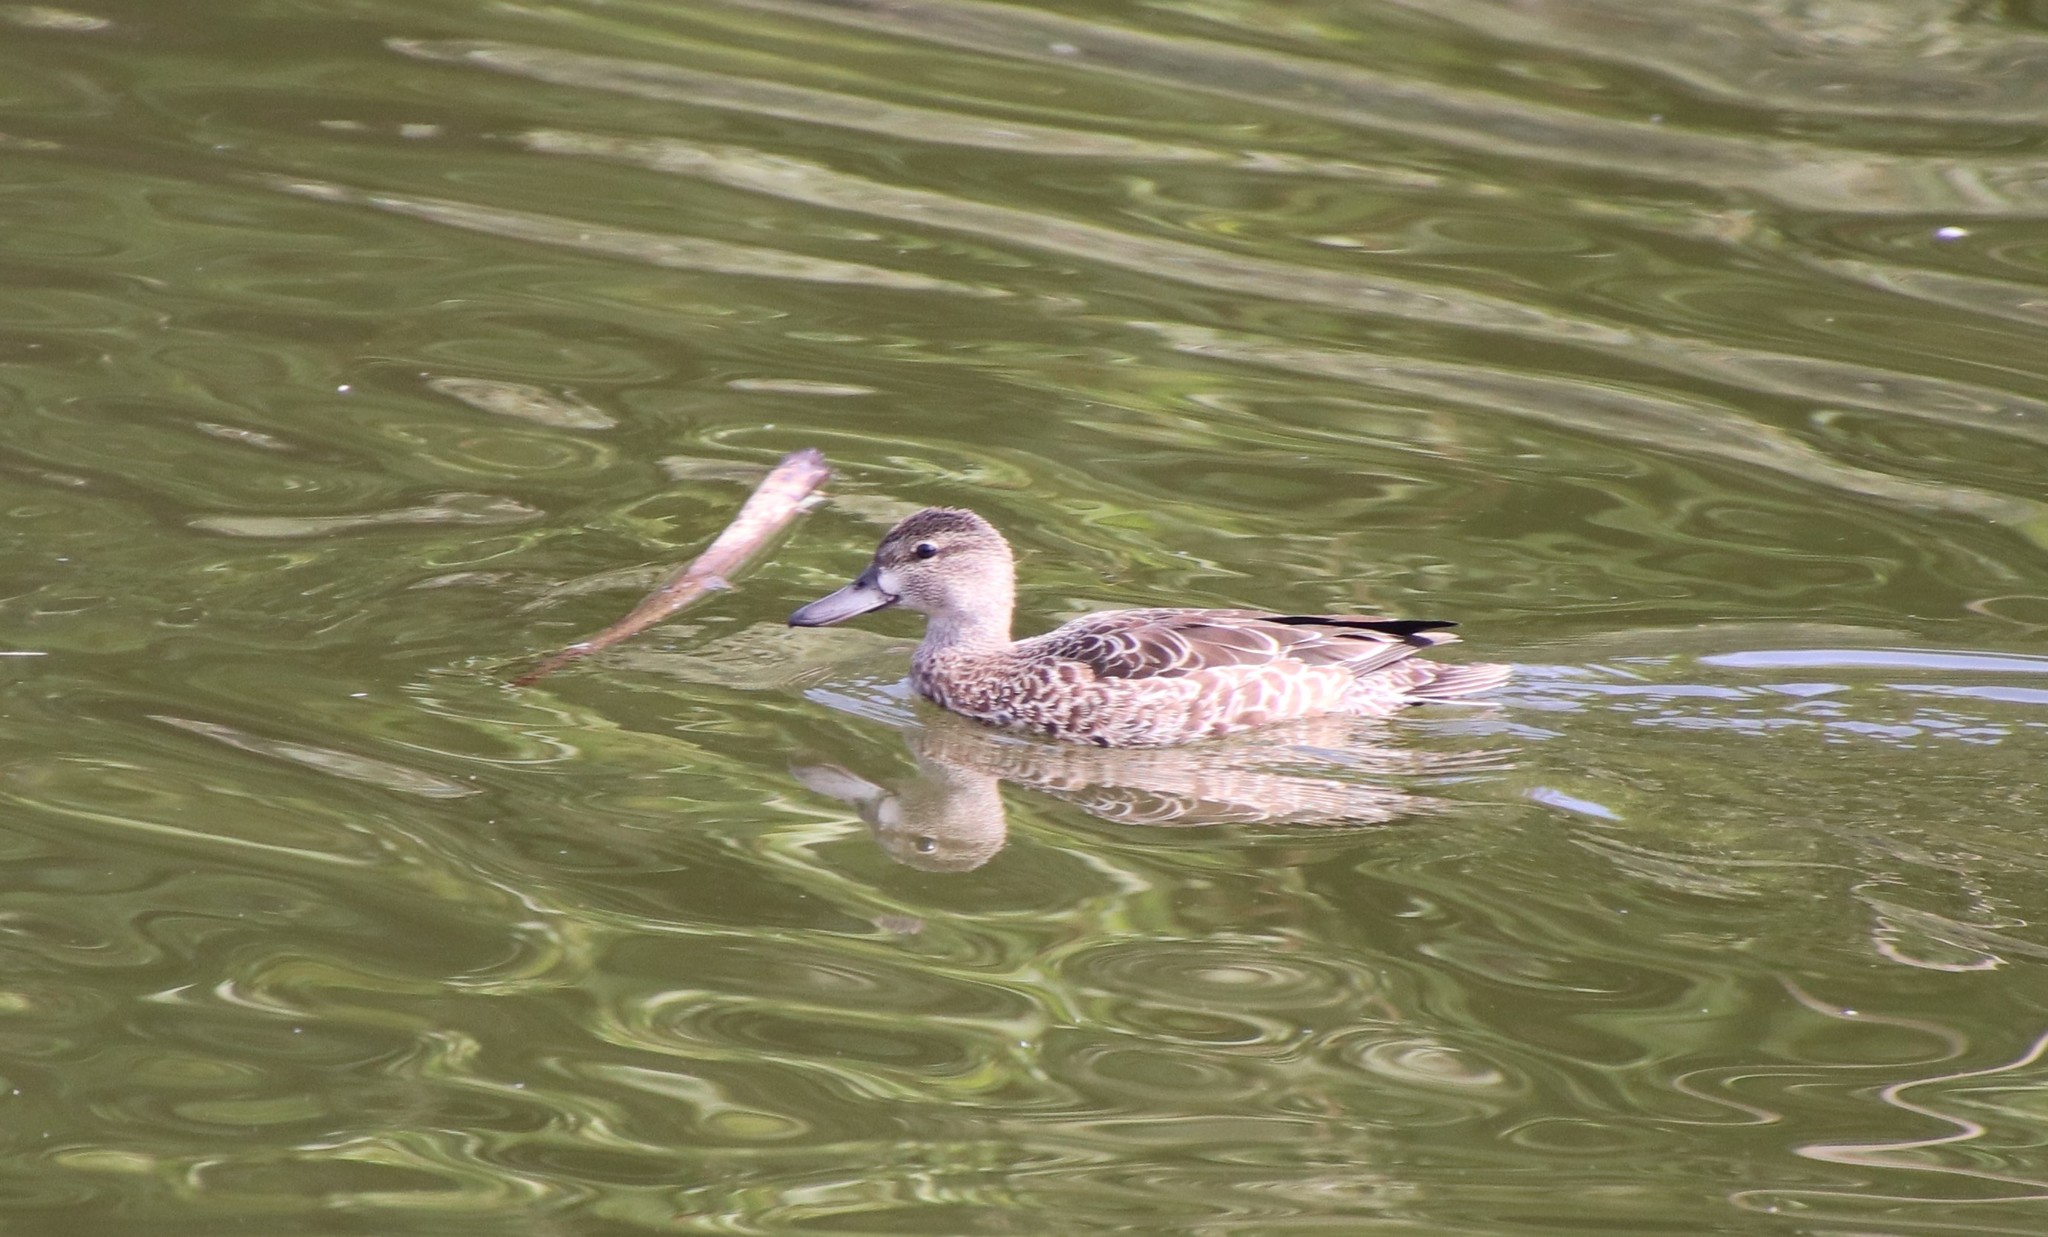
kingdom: Animalia
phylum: Chordata
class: Aves
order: Anseriformes
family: Anatidae
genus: Spatula
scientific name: Spatula discors
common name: Blue-winged teal
